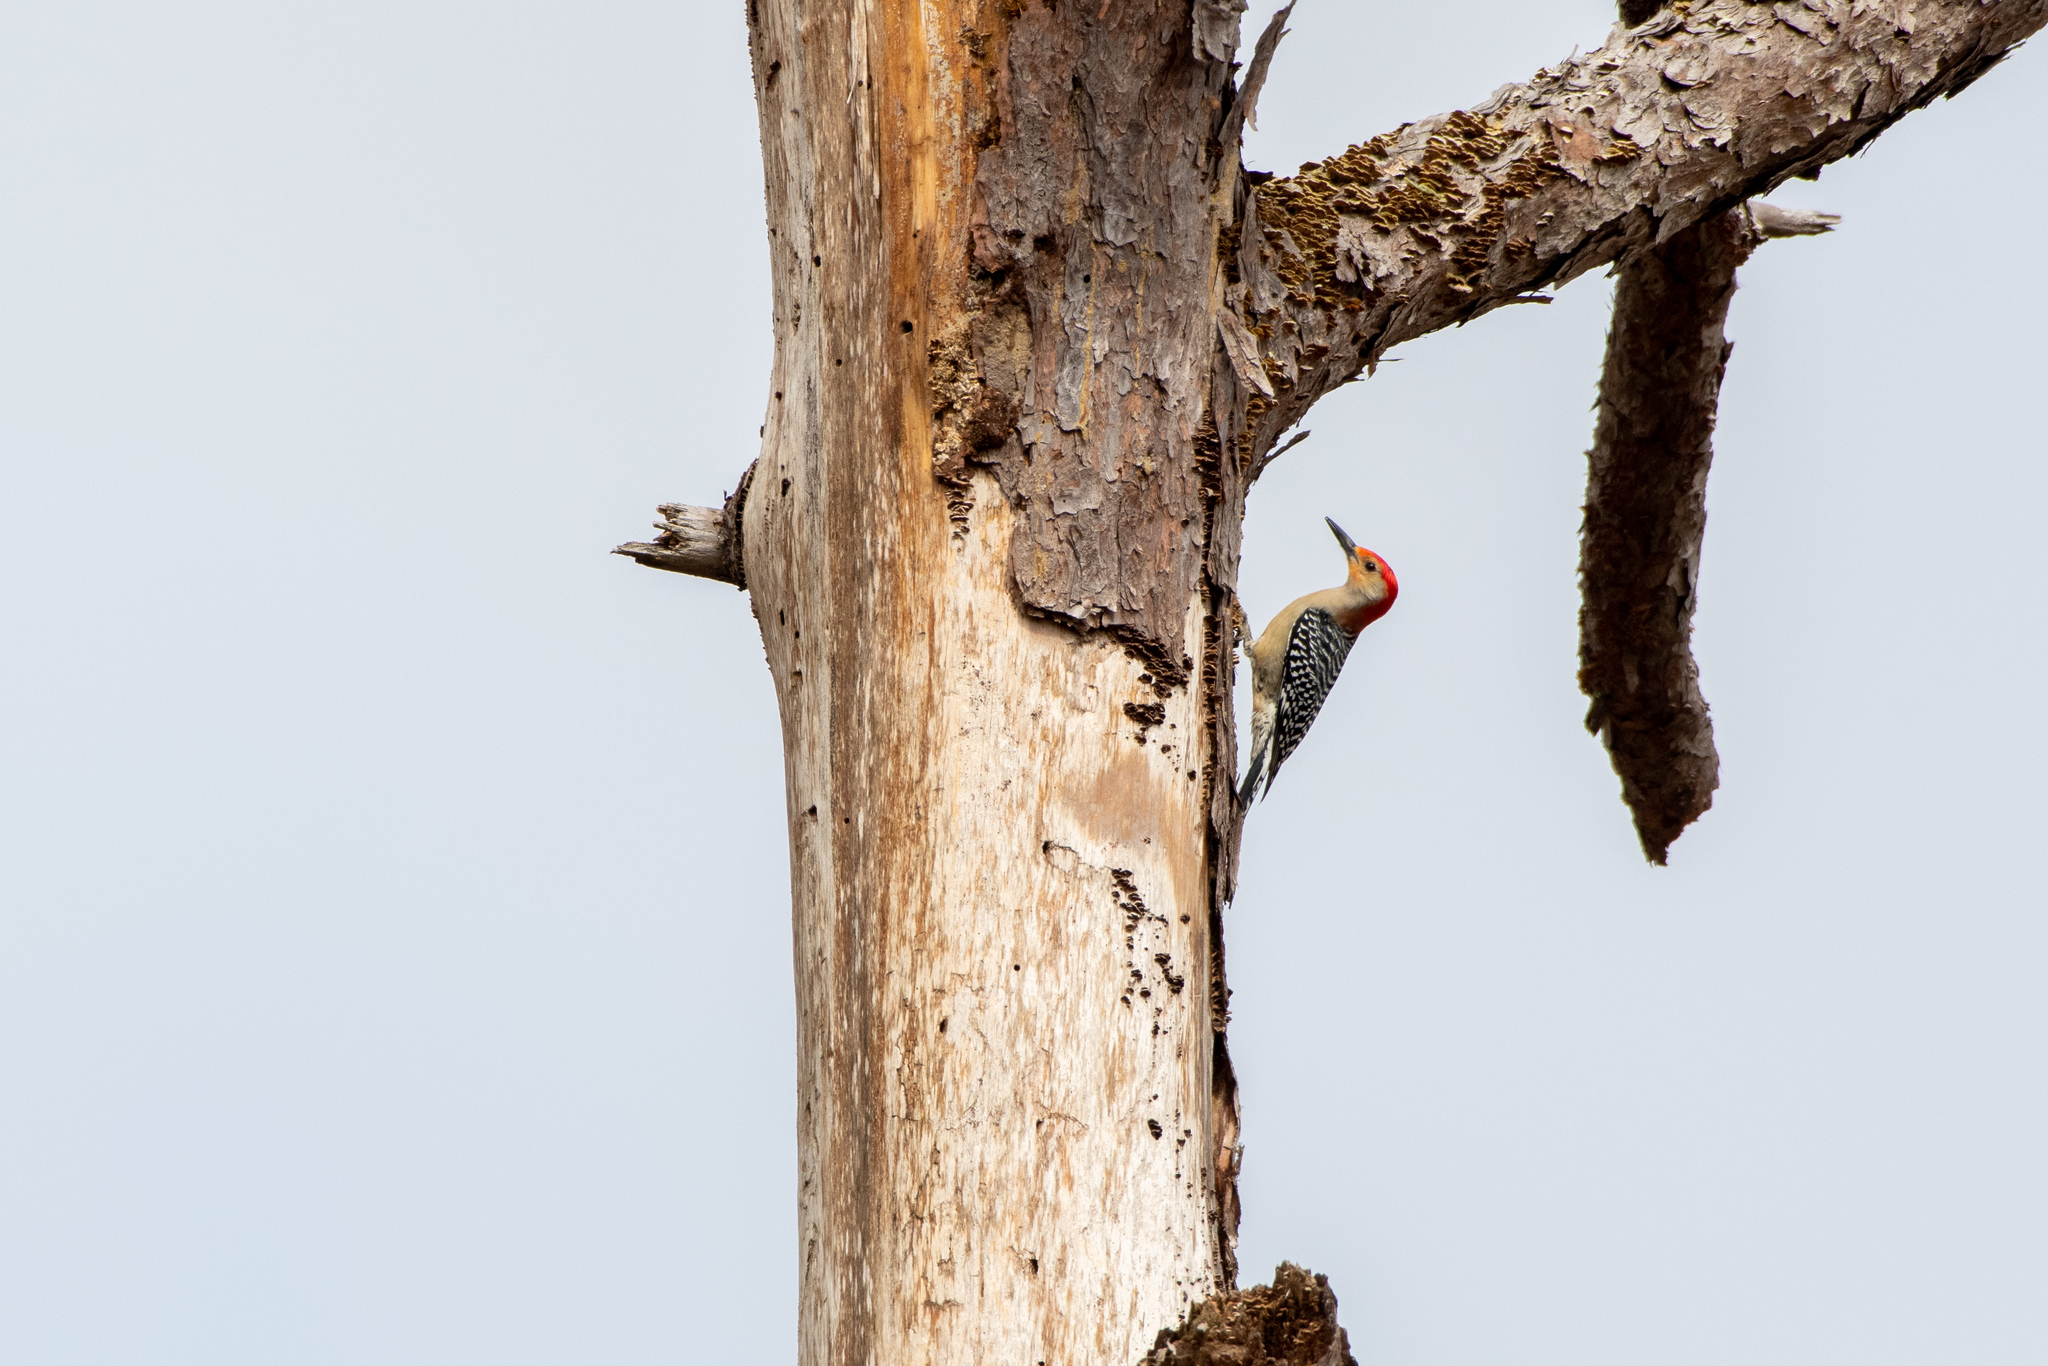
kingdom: Animalia
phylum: Chordata
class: Aves
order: Piciformes
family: Picidae
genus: Melanerpes
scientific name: Melanerpes carolinus
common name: Red-bellied woodpecker
